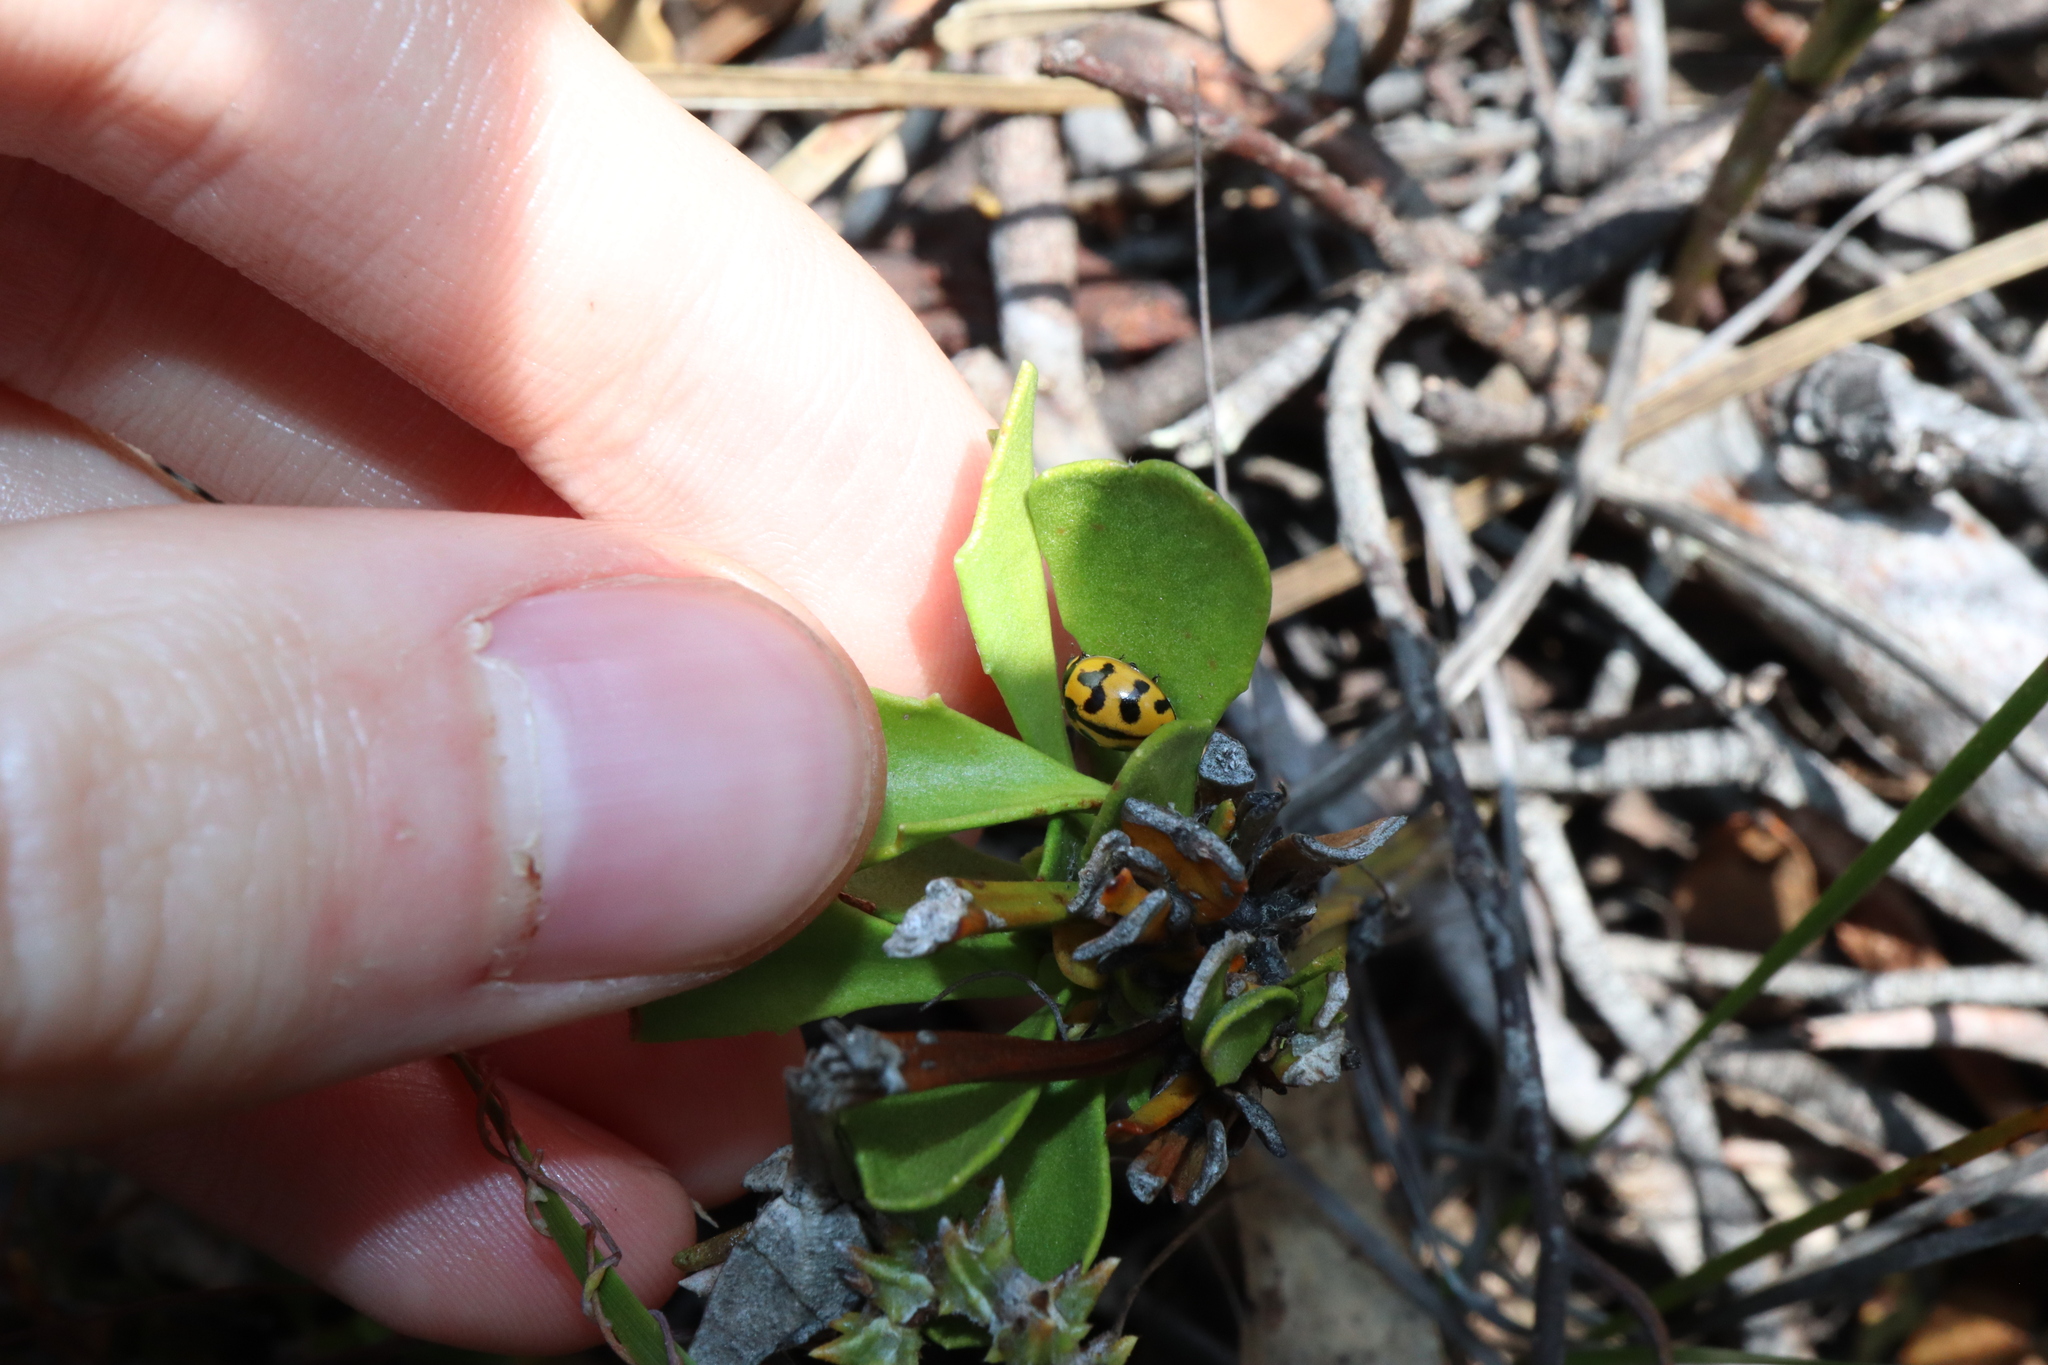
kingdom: Animalia
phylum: Arthropoda
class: Insecta
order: Coleoptera
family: Coccinellidae
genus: Coccinella
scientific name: Coccinella transversalis
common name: Transverse lady beetle
